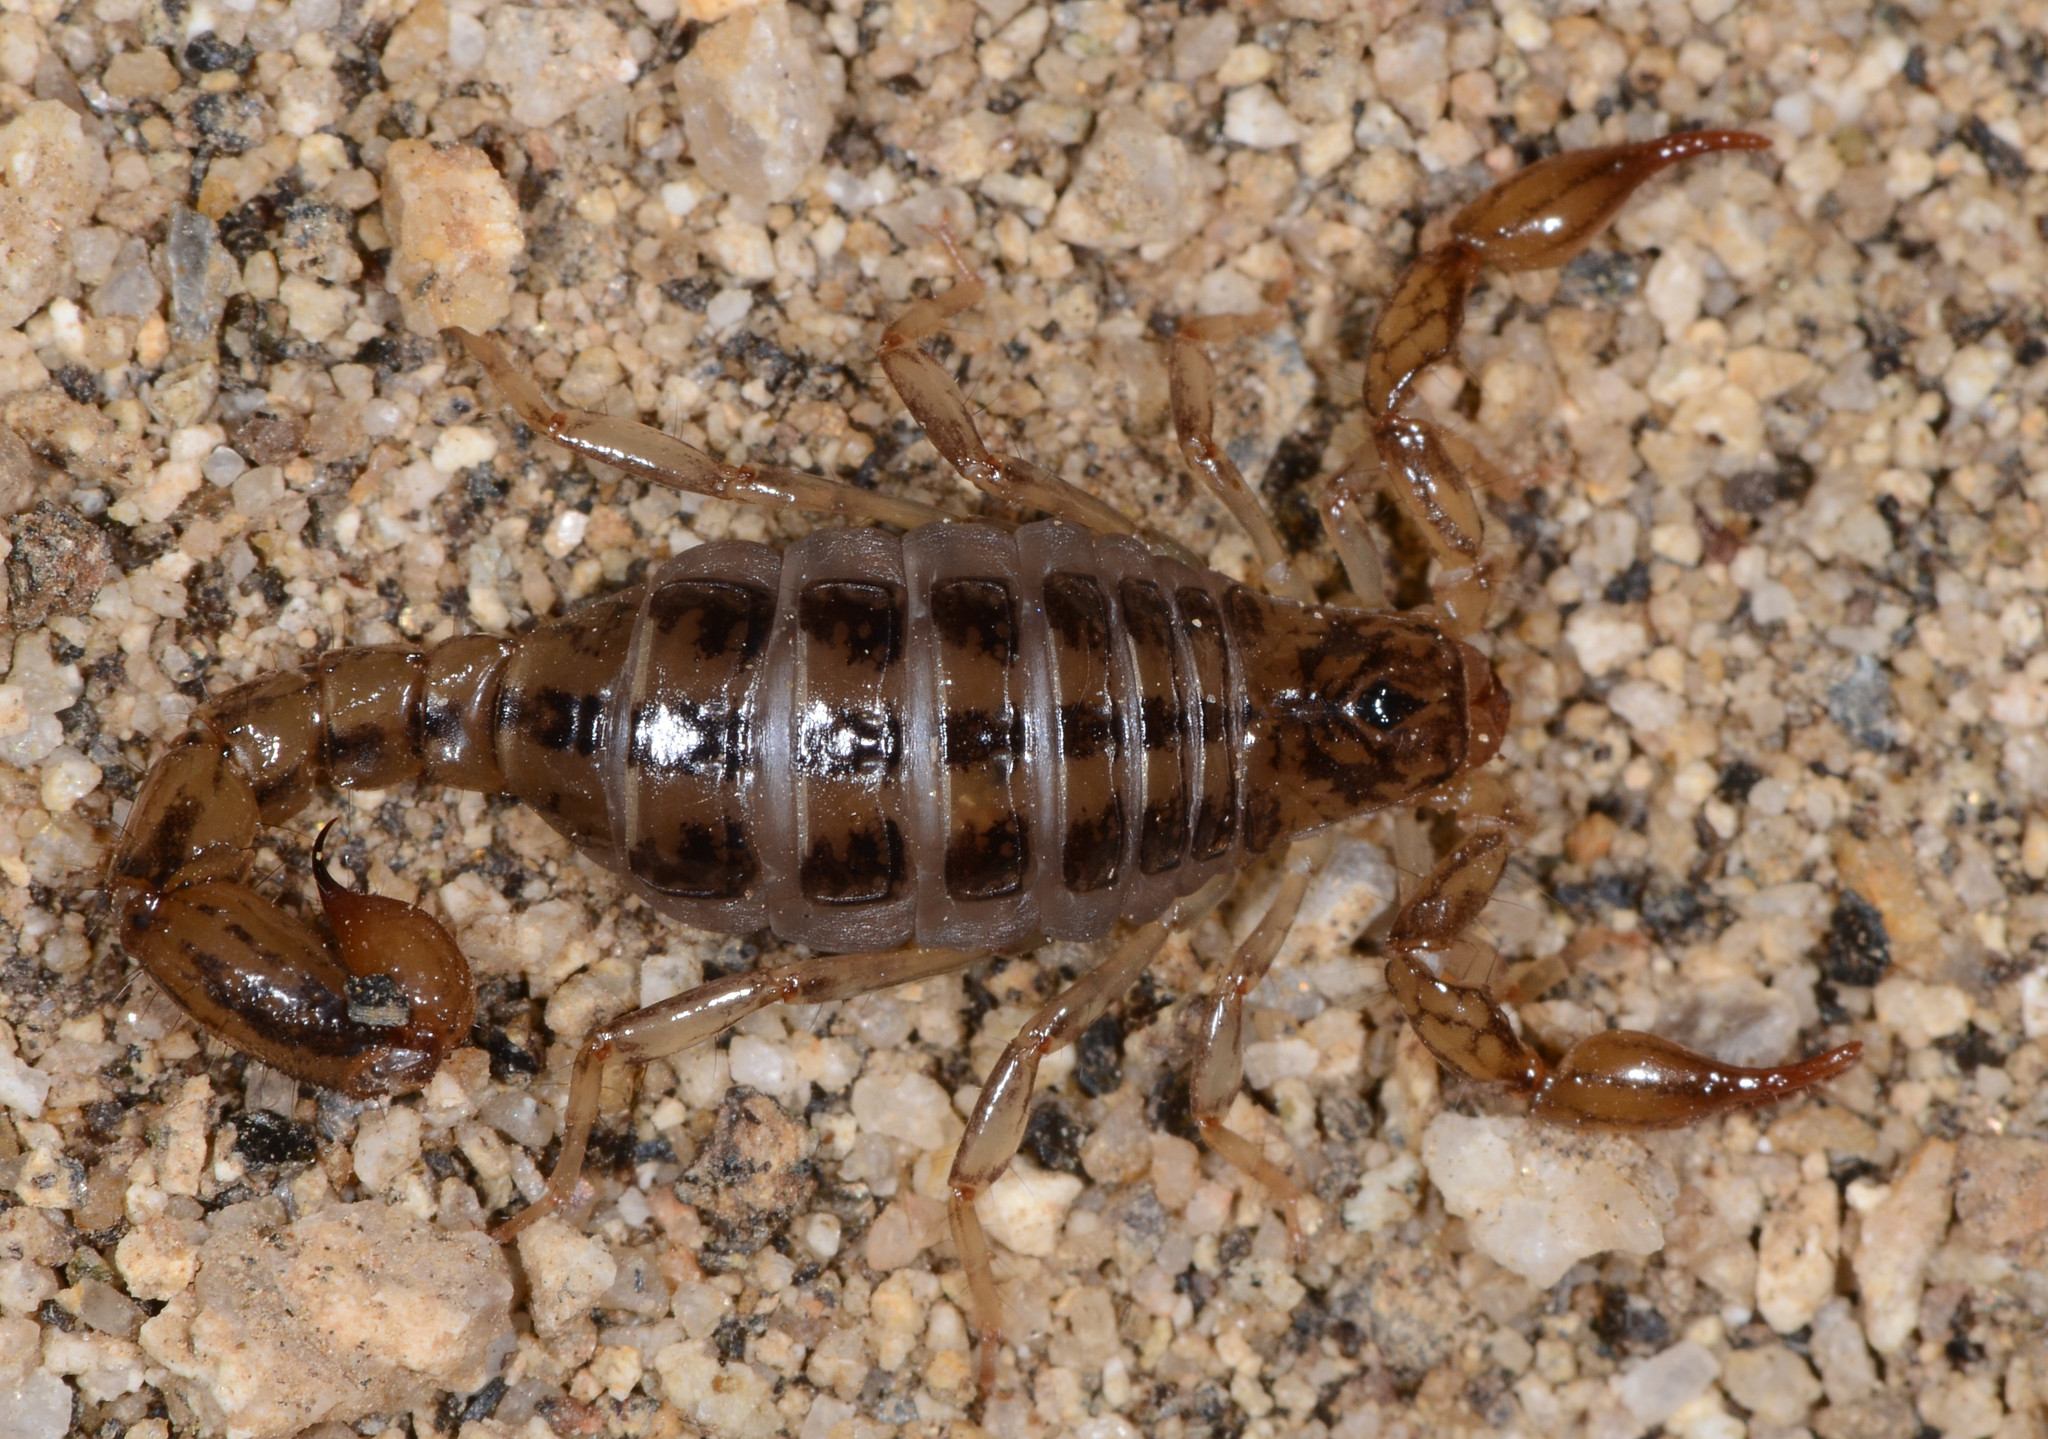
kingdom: Animalia
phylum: Arthropoda
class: Arachnida
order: Scorpiones
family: Superstitioniidae
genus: Superstitionia
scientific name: Superstitionia donensis
